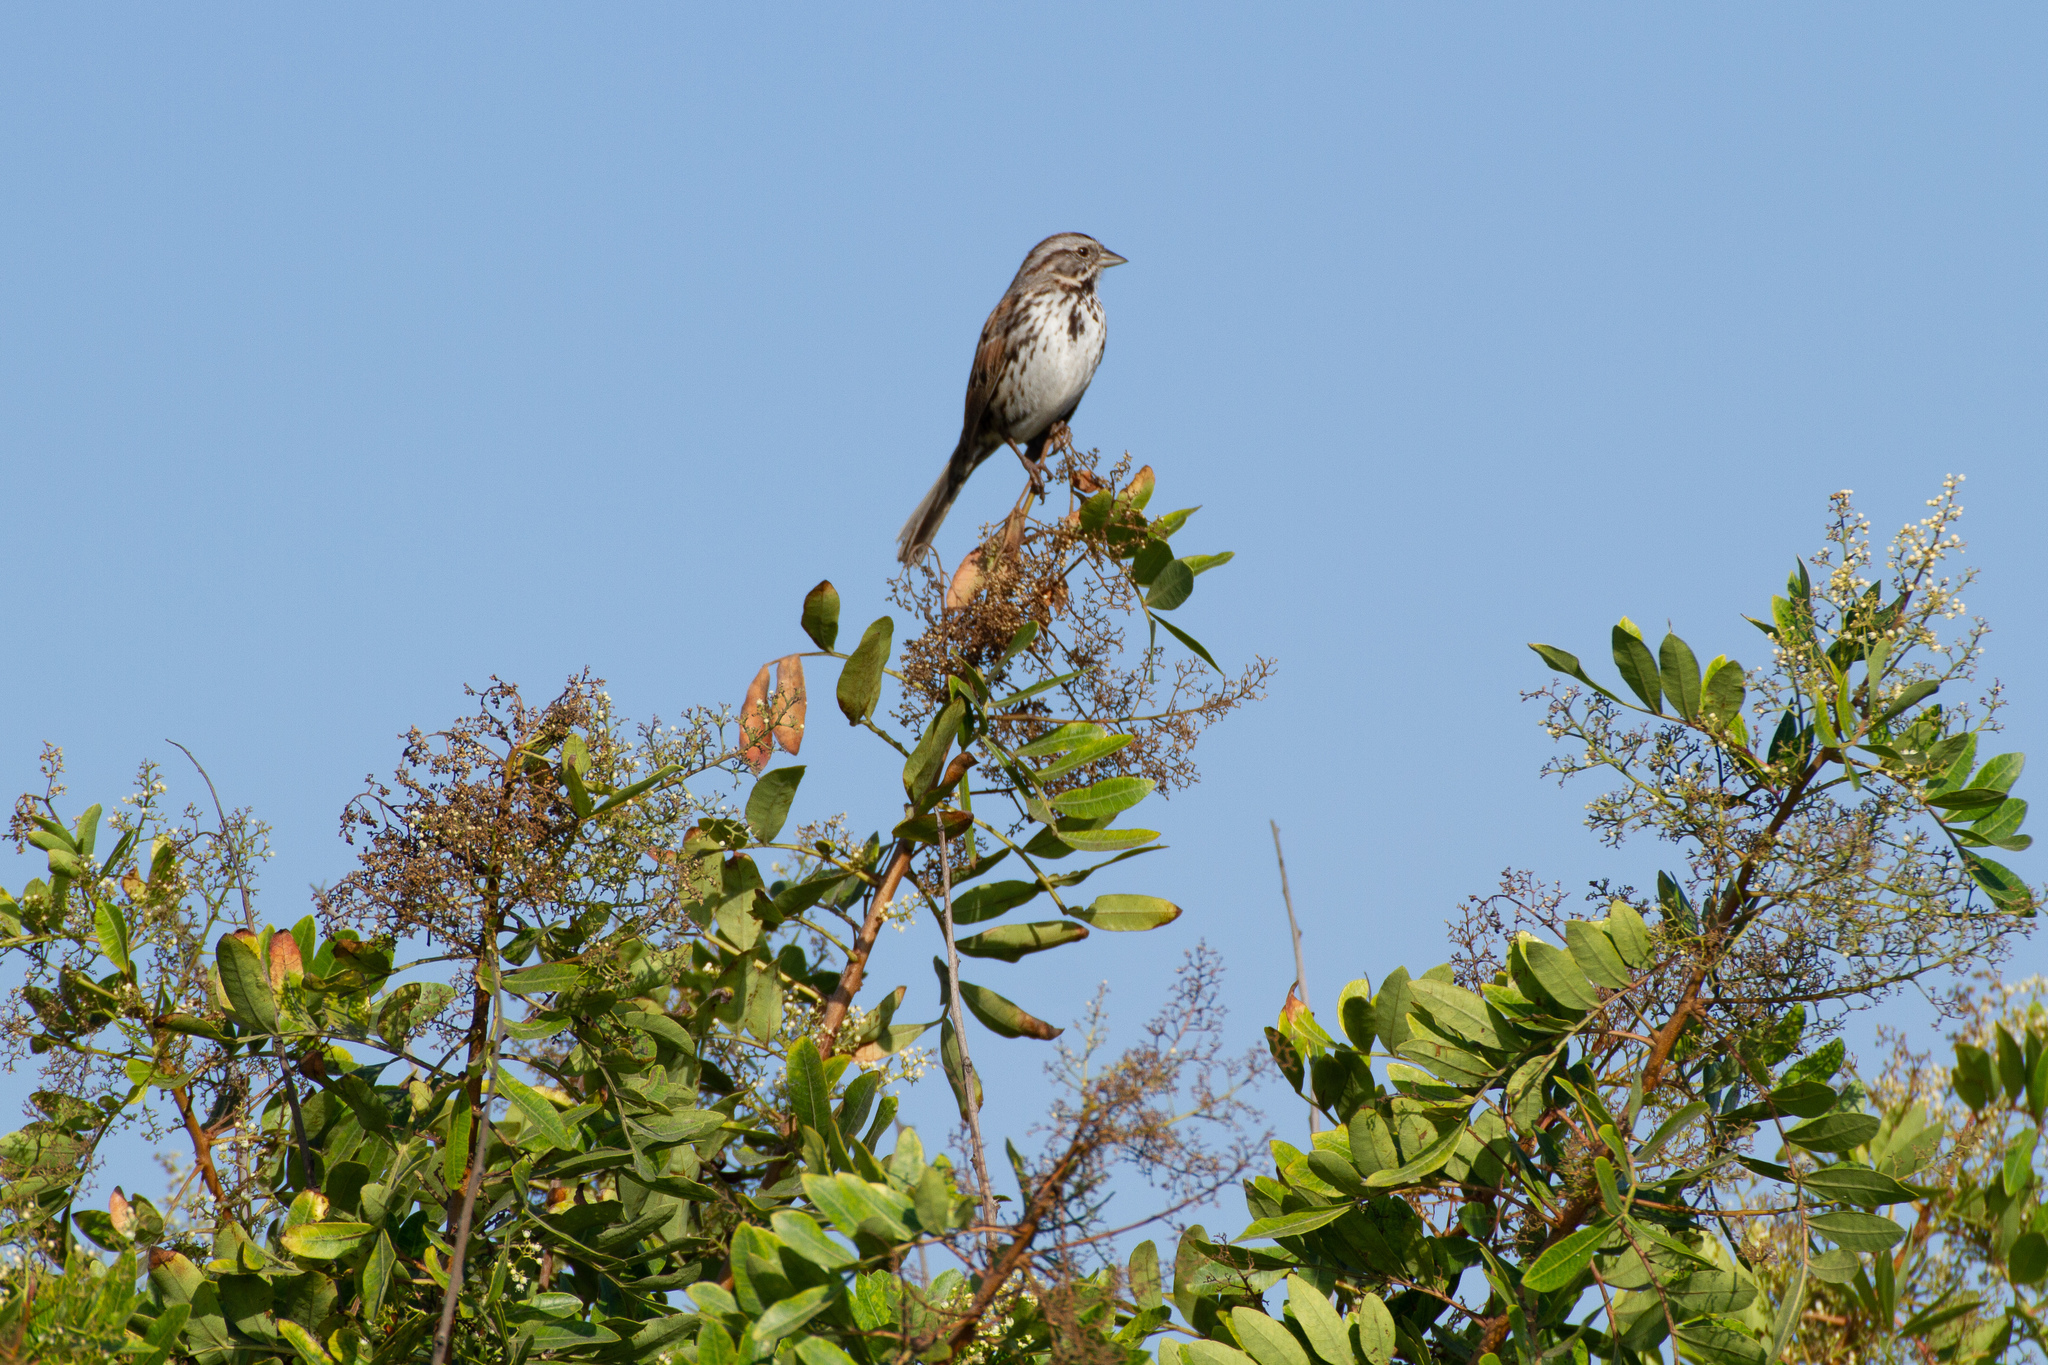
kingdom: Animalia
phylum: Chordata
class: Aves
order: Passeriformes
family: Passerellidae
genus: Melospiza
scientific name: Melospiza melodia
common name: Song sparrow
